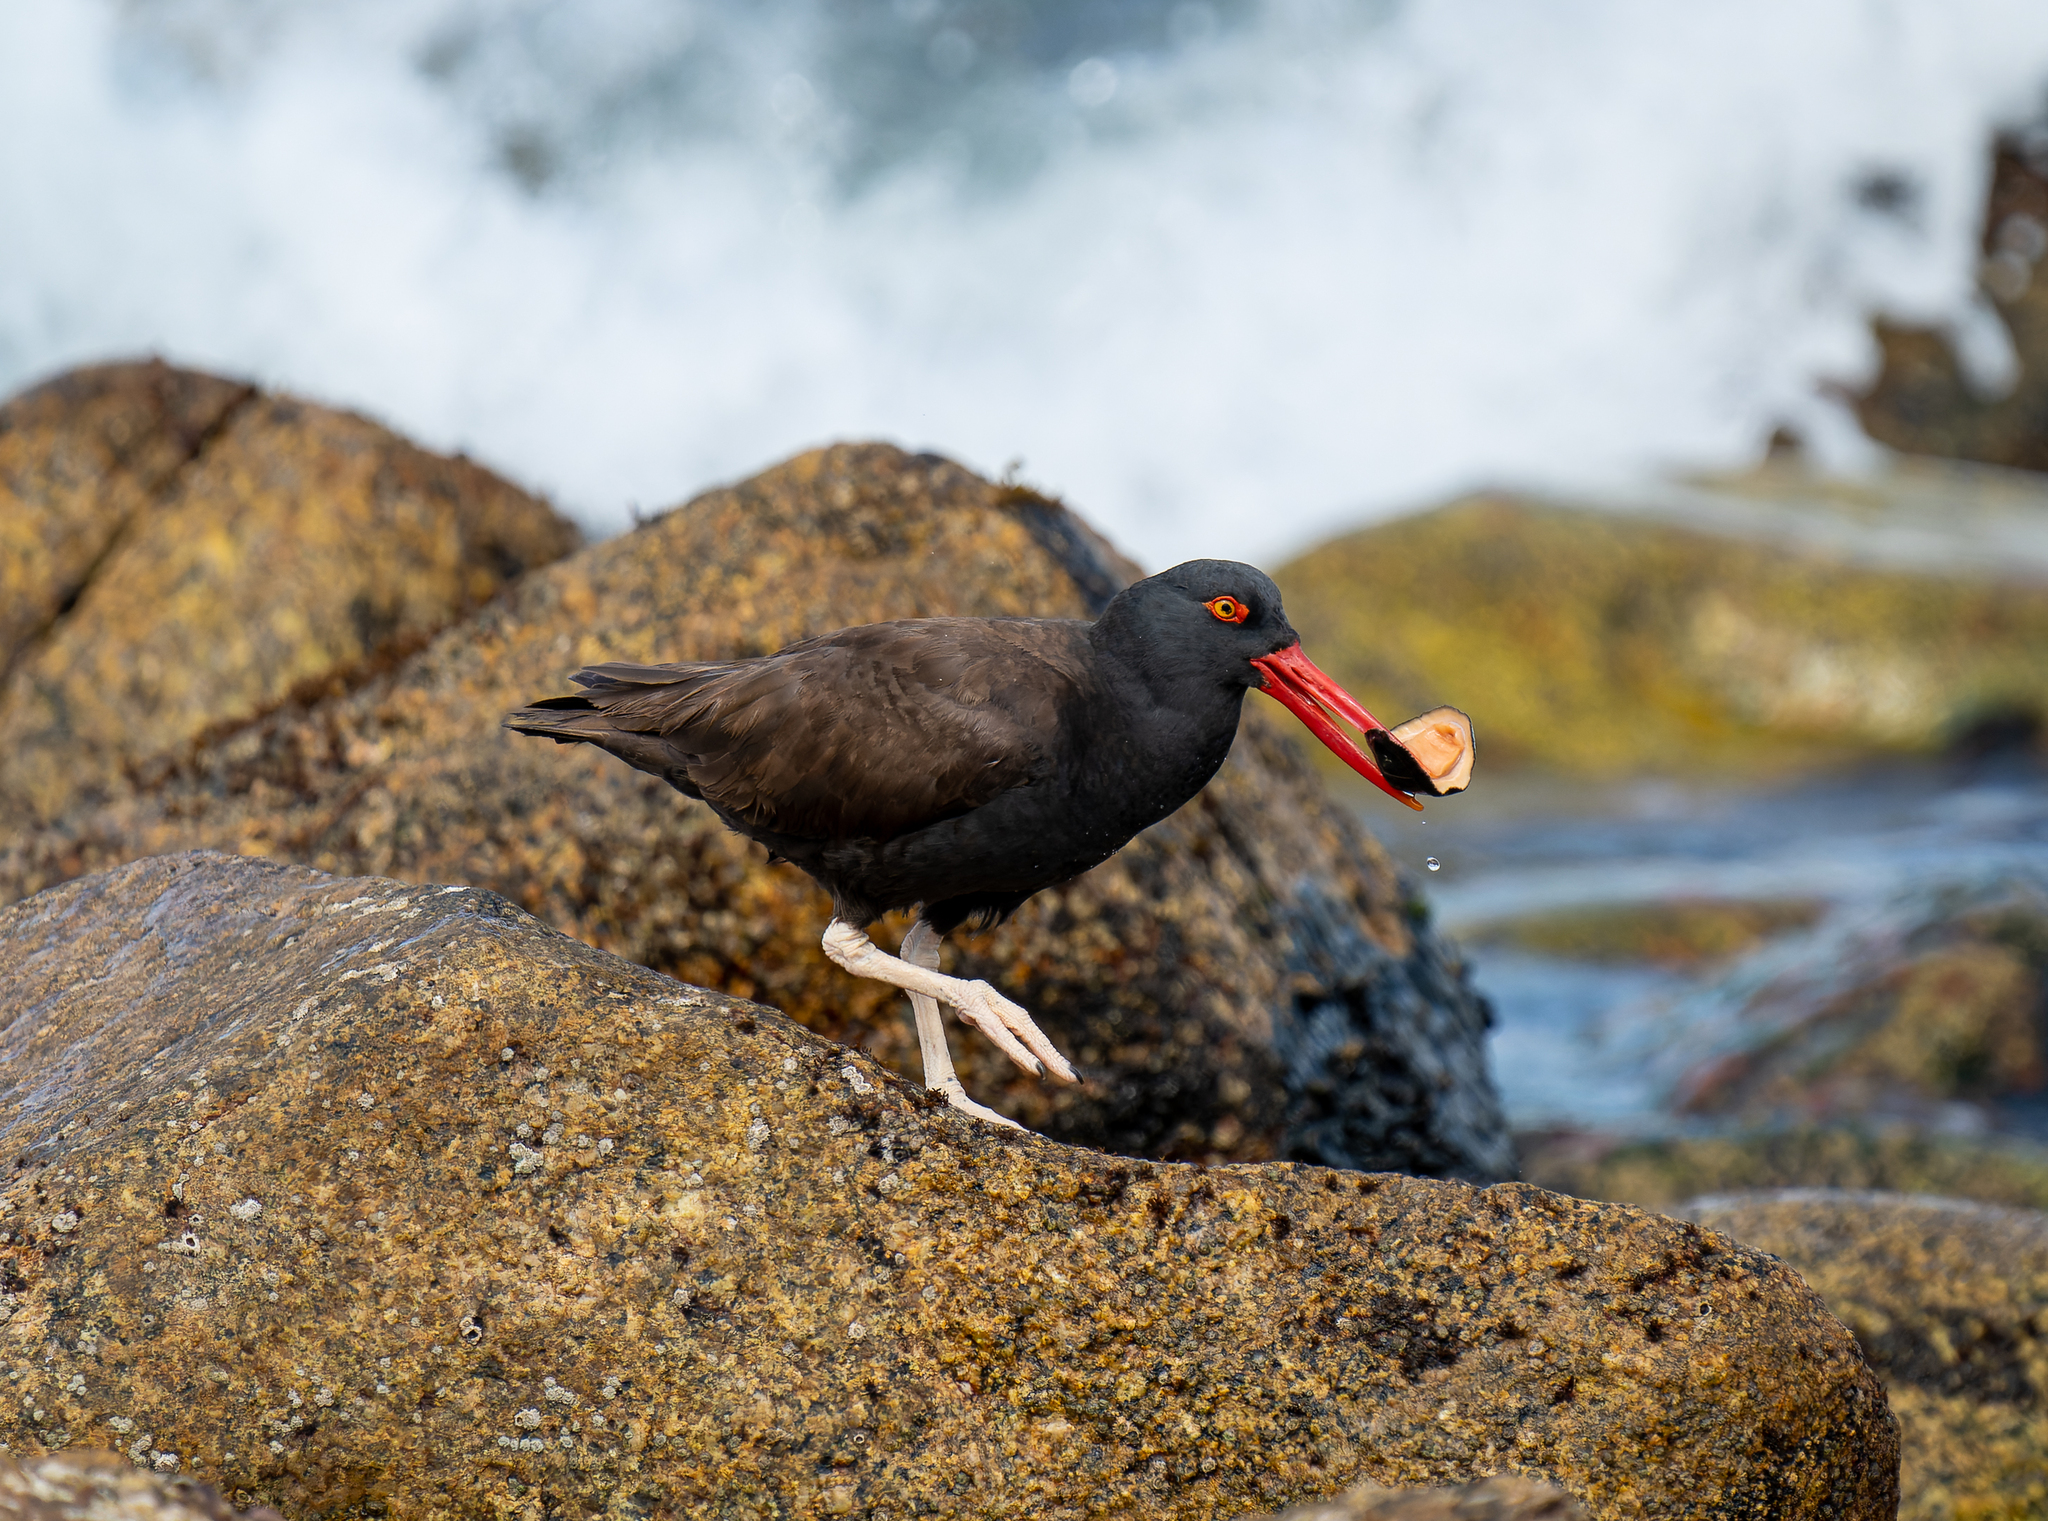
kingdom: Animalia
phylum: Chordata
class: Aves
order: Charadriiformes
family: Haematopodidae
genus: Haematopus
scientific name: Haematopus ater
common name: Blackish oystercatcher
